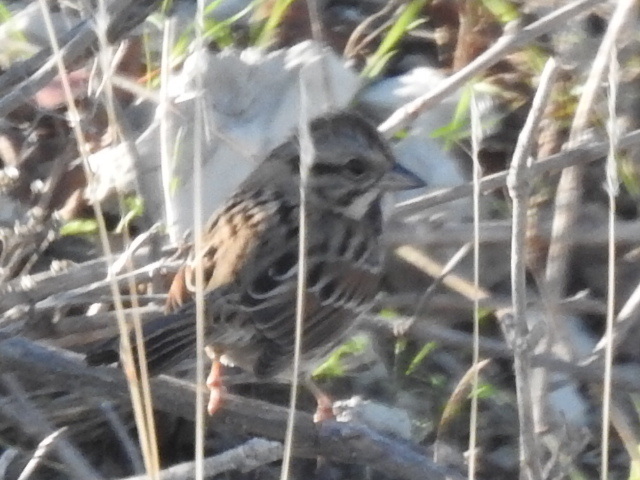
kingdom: Animalia
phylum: Chordata
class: Aves
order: Passeriformes
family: Passerellidae
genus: Melospiza
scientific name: Melospiza melodia
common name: Song sparrow
